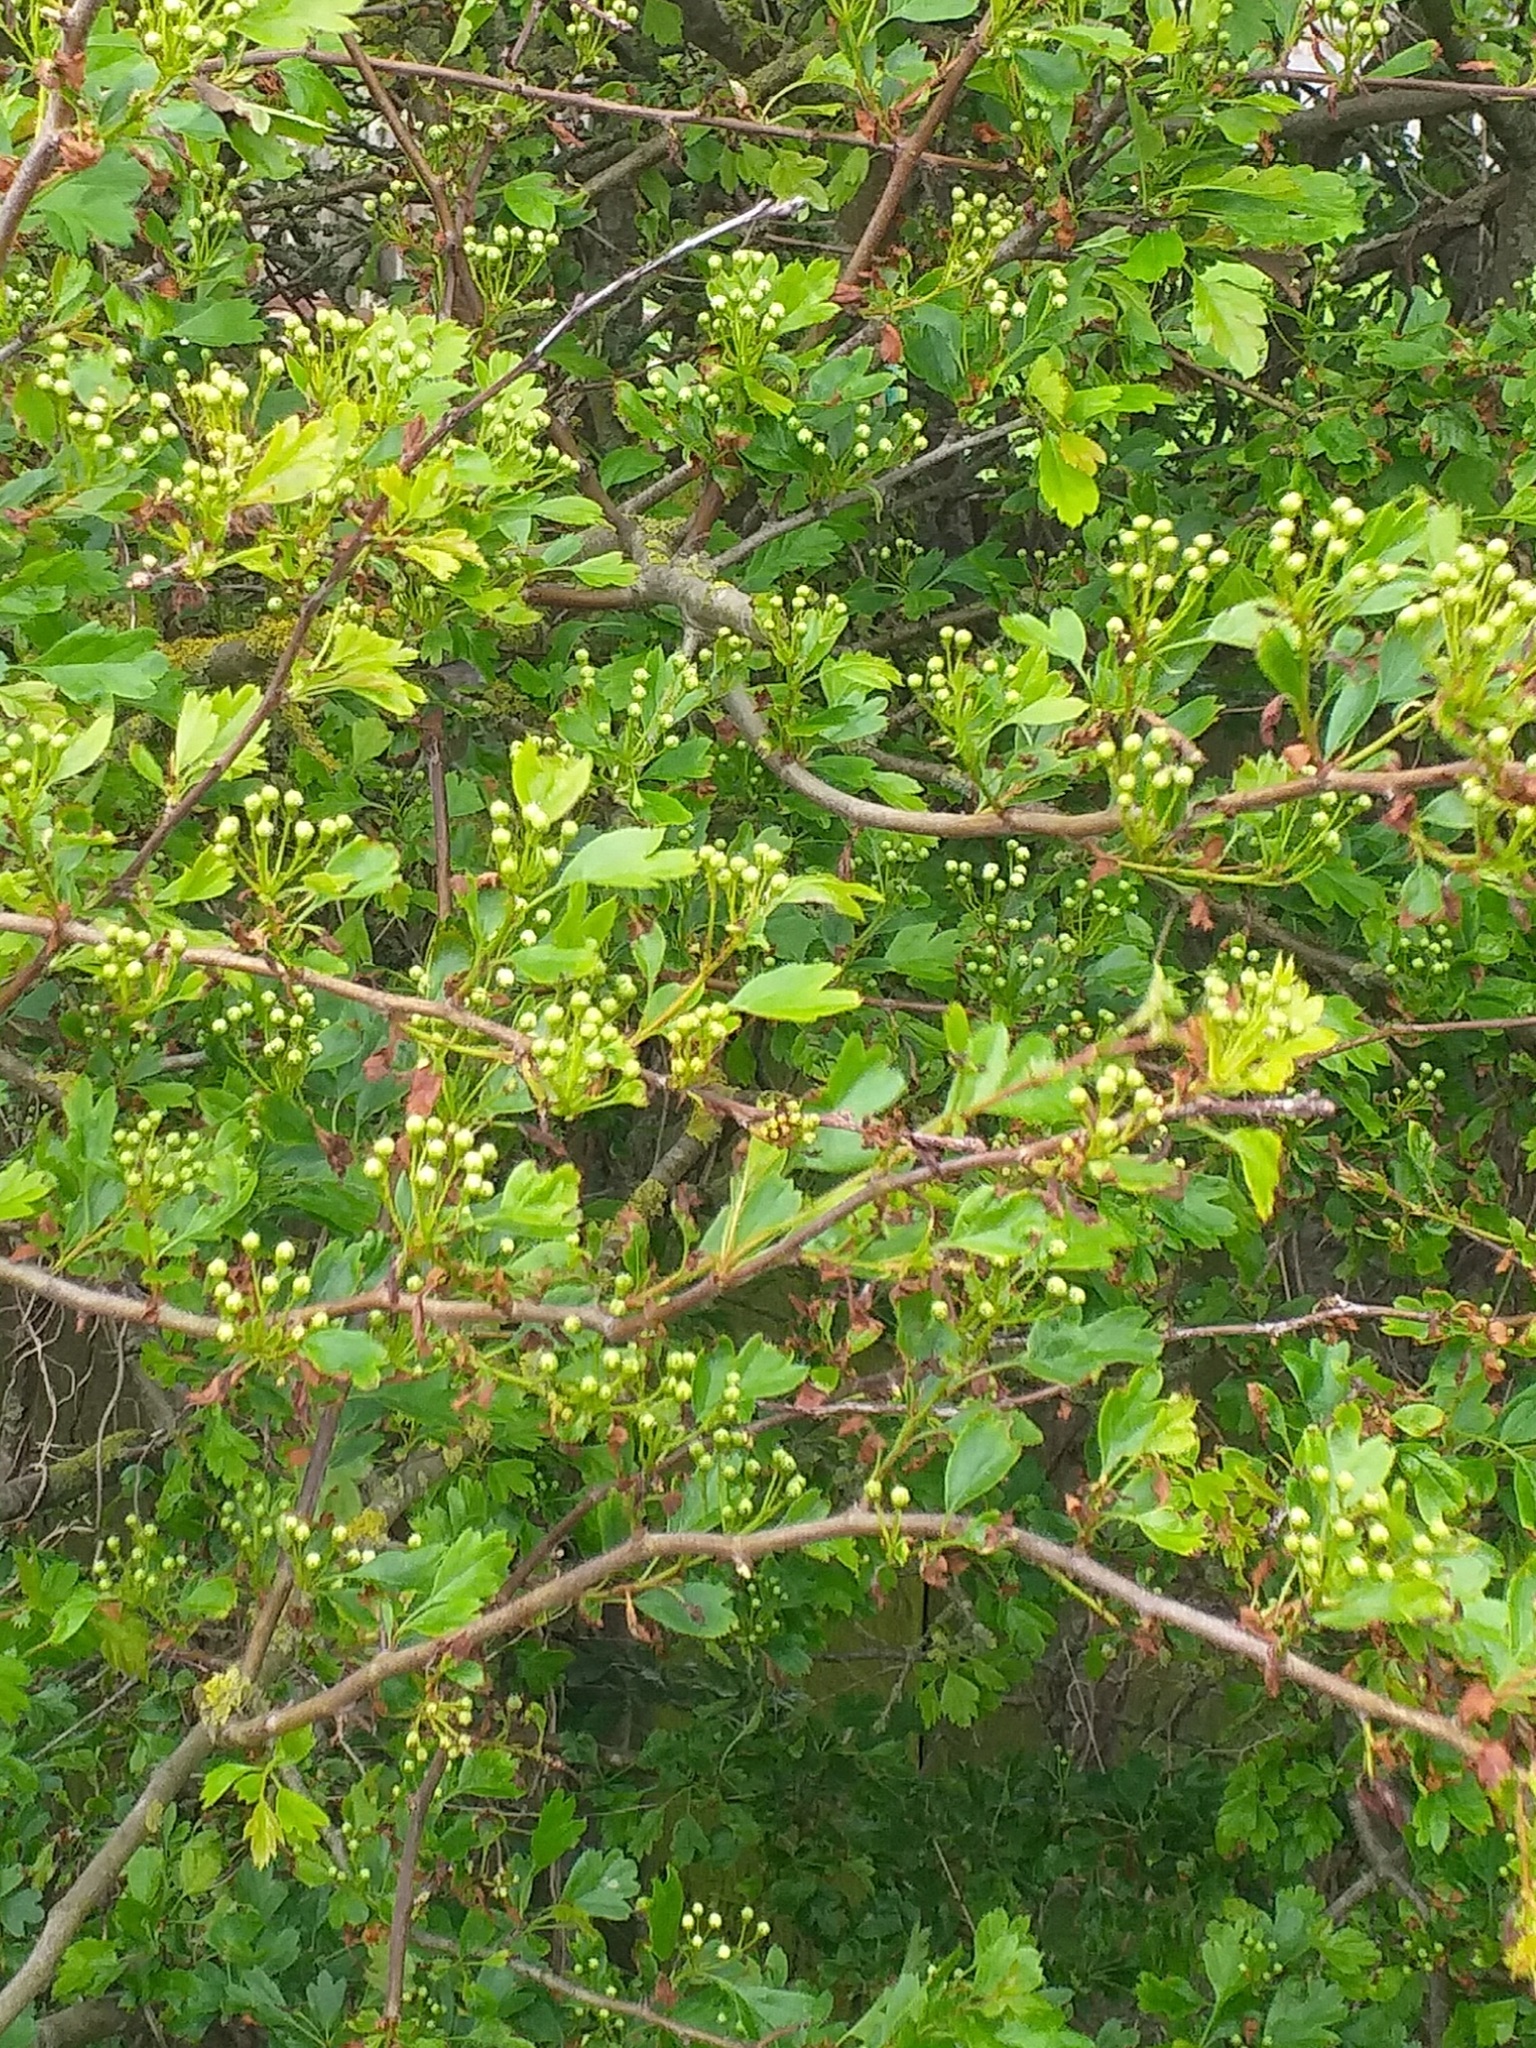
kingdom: Plantae
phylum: Tracheophyta
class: Magnoliopsida
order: Rosales
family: Rosaceae
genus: Crataegus
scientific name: Crataegus monogyna
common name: Hawthorn
